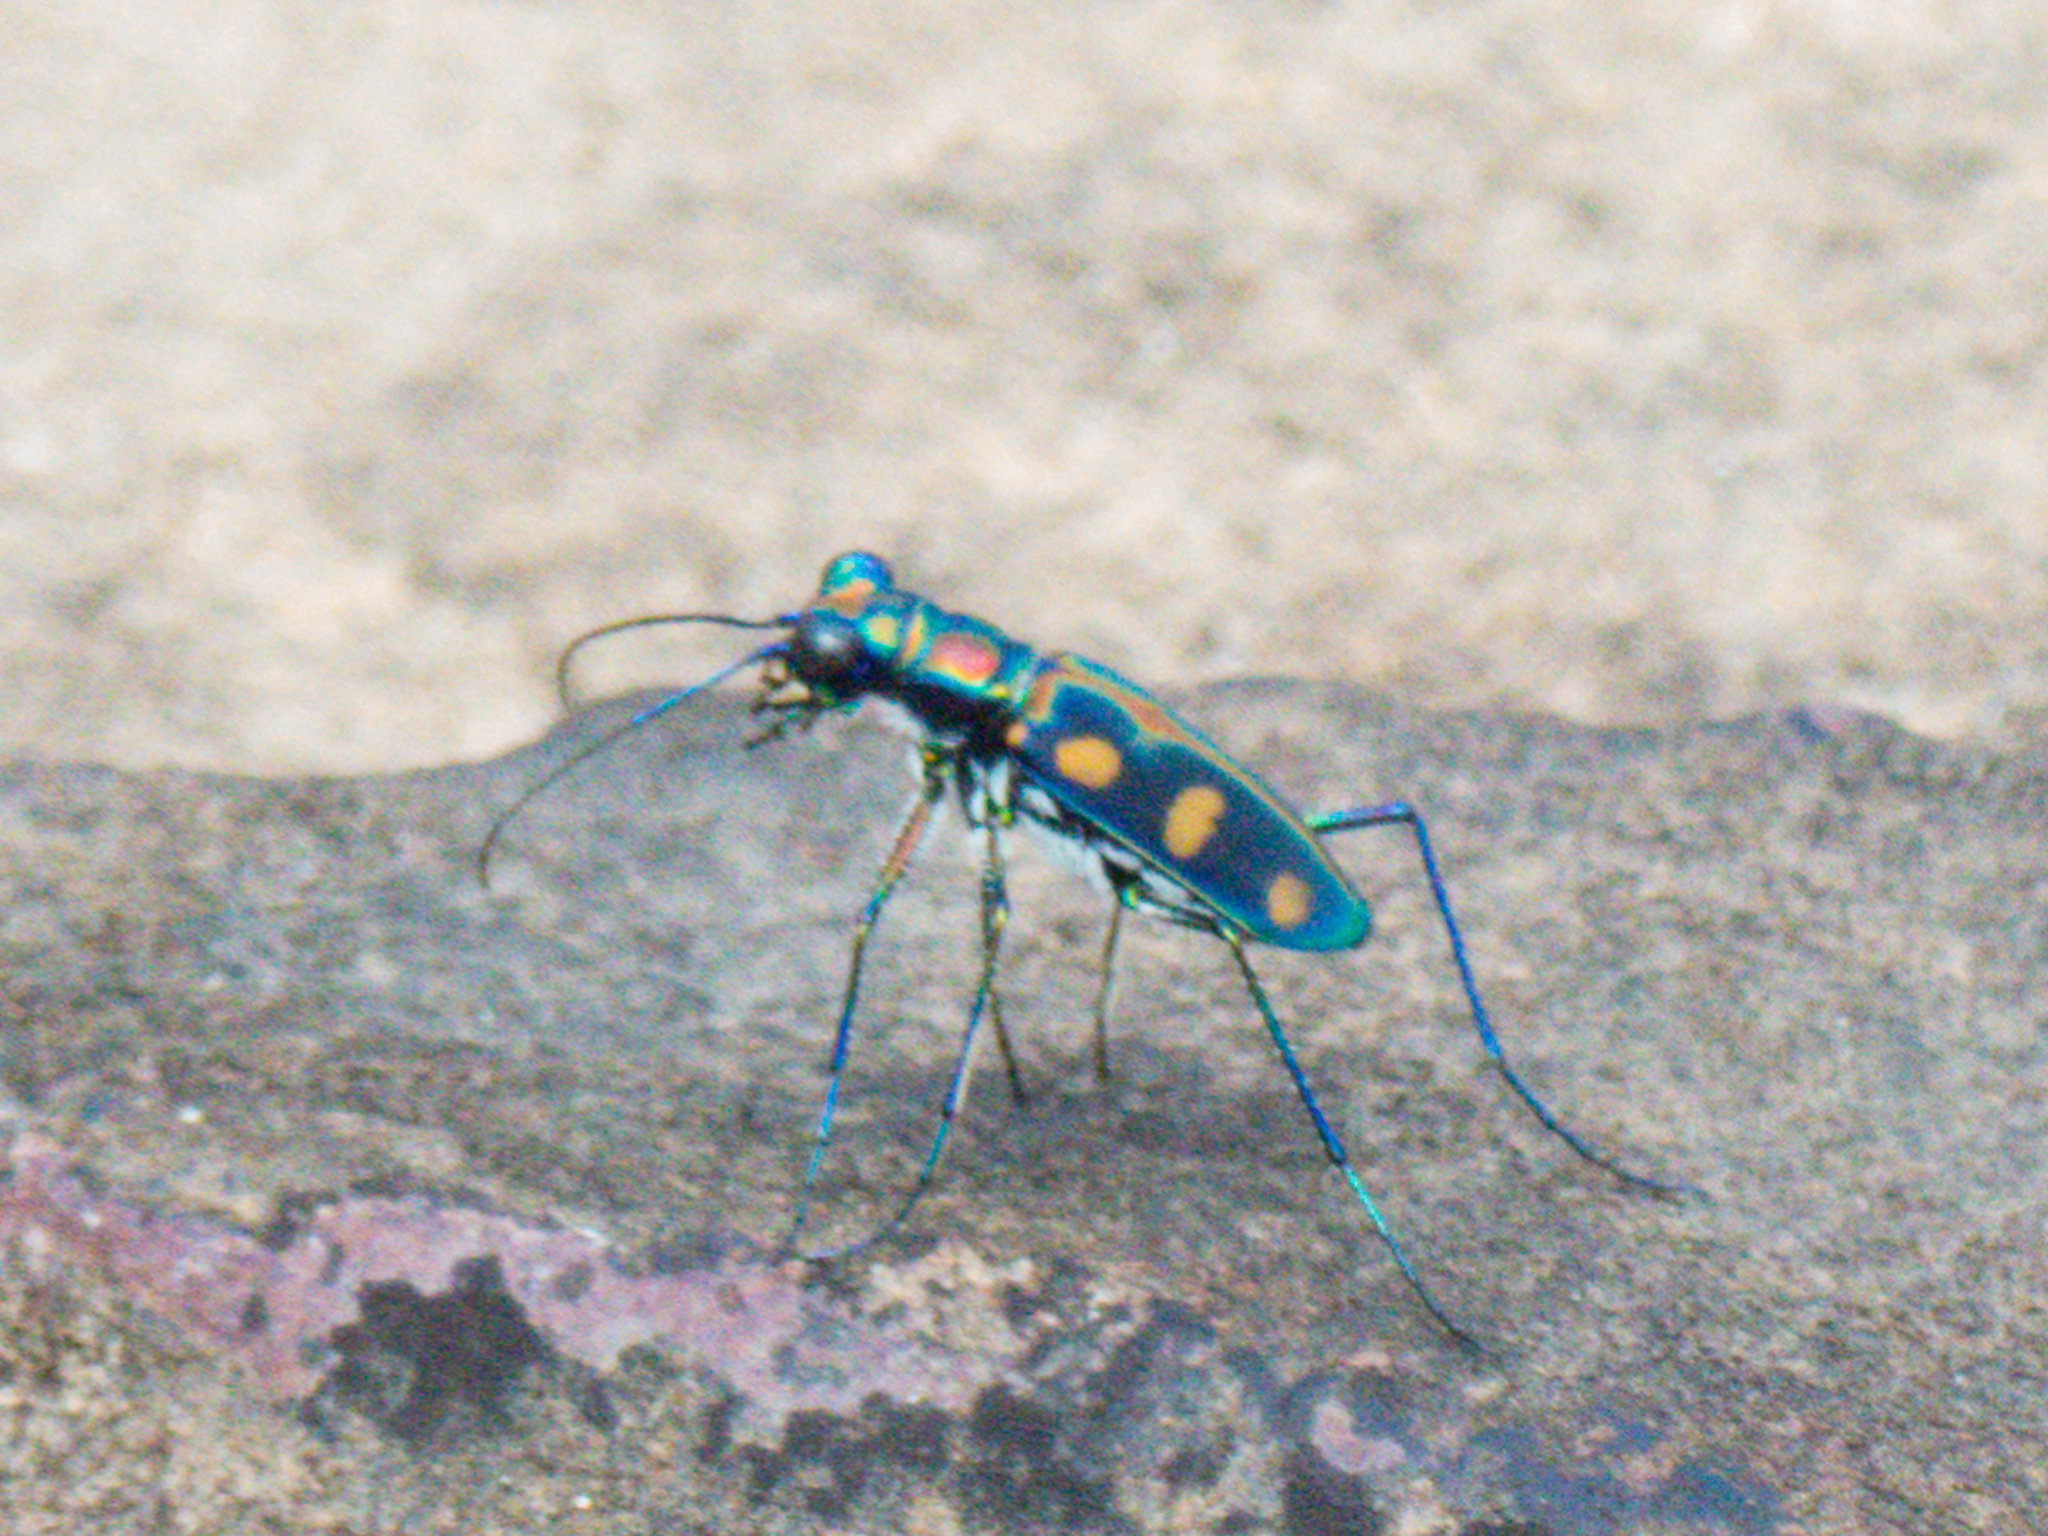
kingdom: Animalia
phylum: Arthropoda
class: Insecta
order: Coleoptera
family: Carabidae
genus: Cicindela
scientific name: Cicindela juxtata
